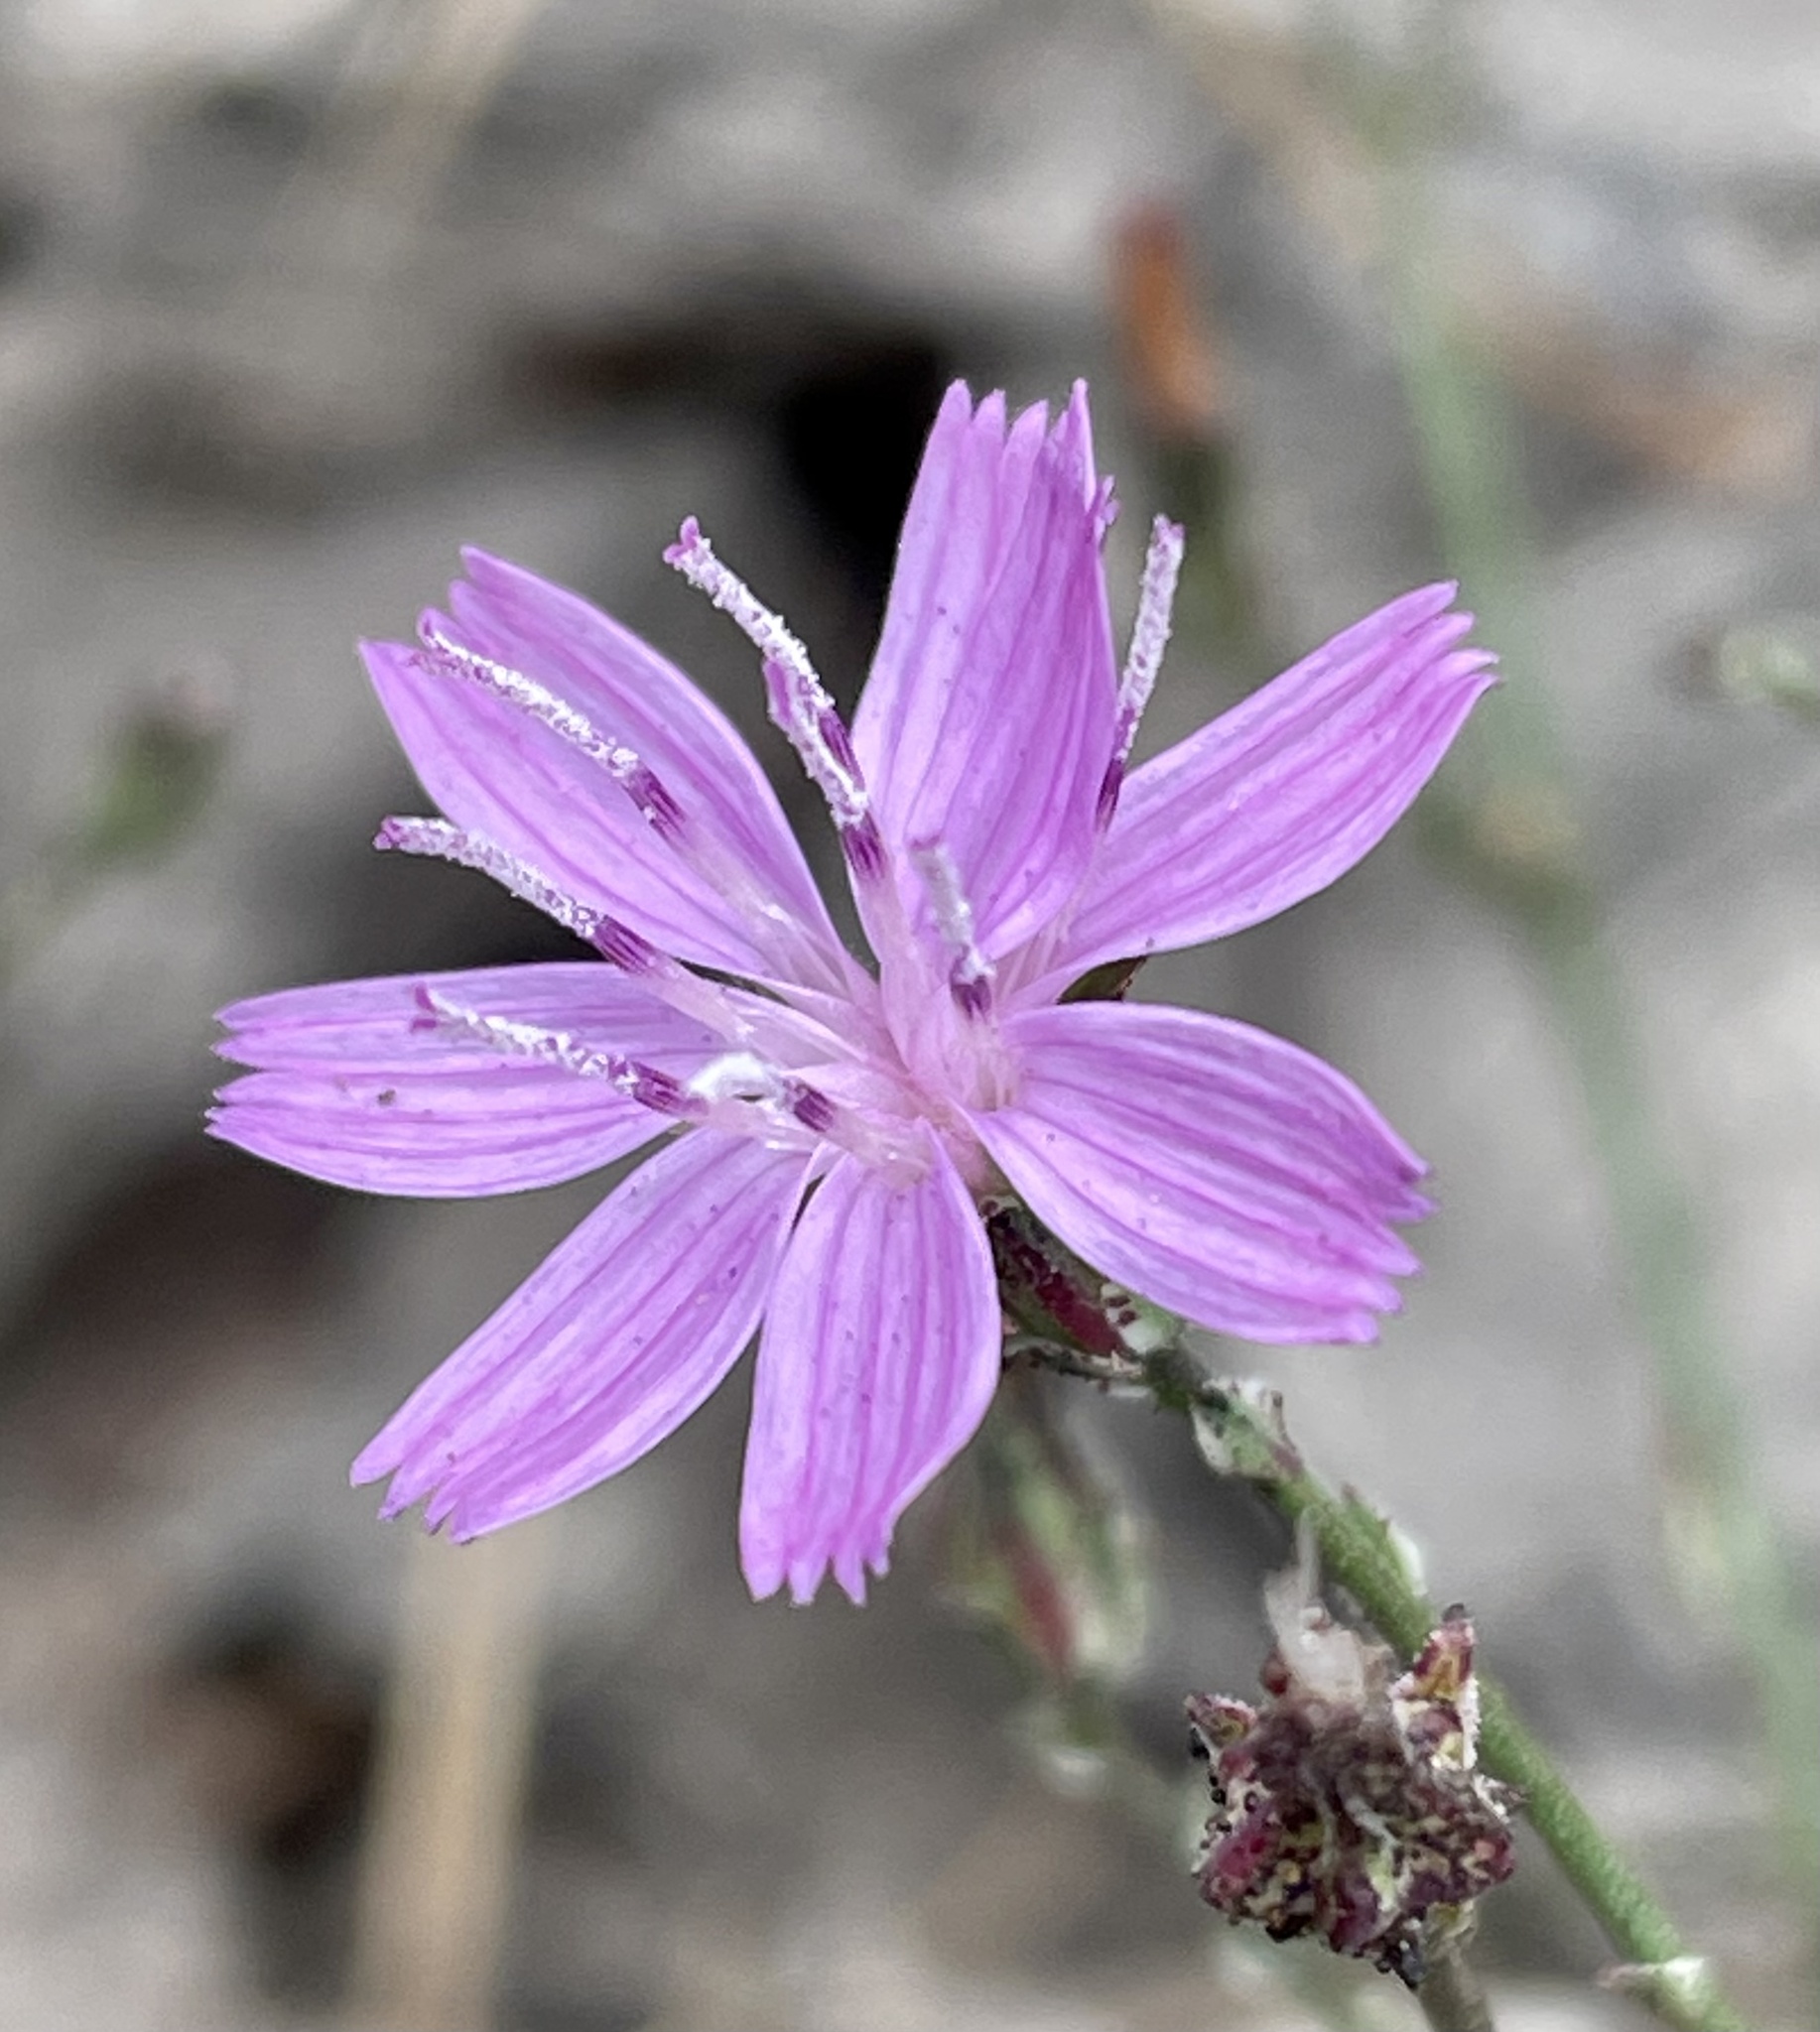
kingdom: Plantae
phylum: Tracheophyta
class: Magnoliopsida
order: Asterales
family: Asteraceae
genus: Stephanomeria
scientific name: Stephanomeria virgata
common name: Virgate wirelettuce
